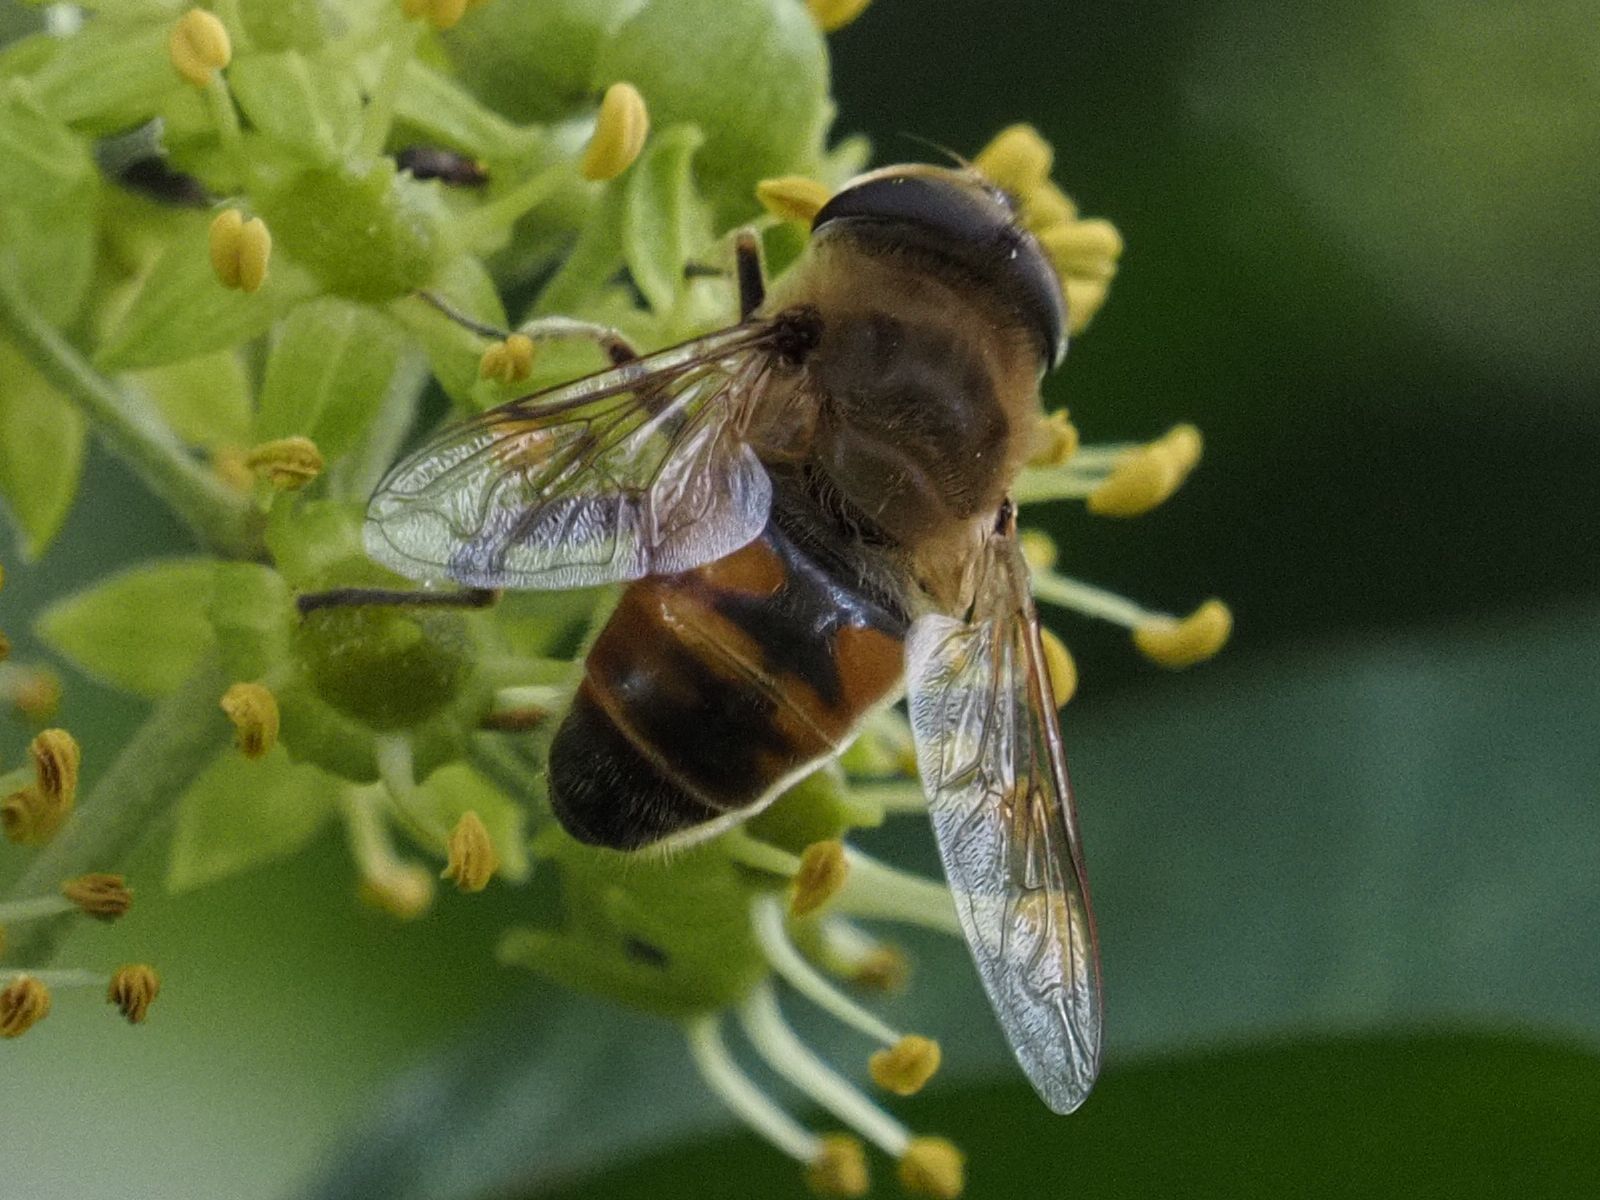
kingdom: Animalia
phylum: Arthropoda
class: Insecta
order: Diptera
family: Syrphidae
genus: Eristalis
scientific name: Eristalis tenax
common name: Drone fly
